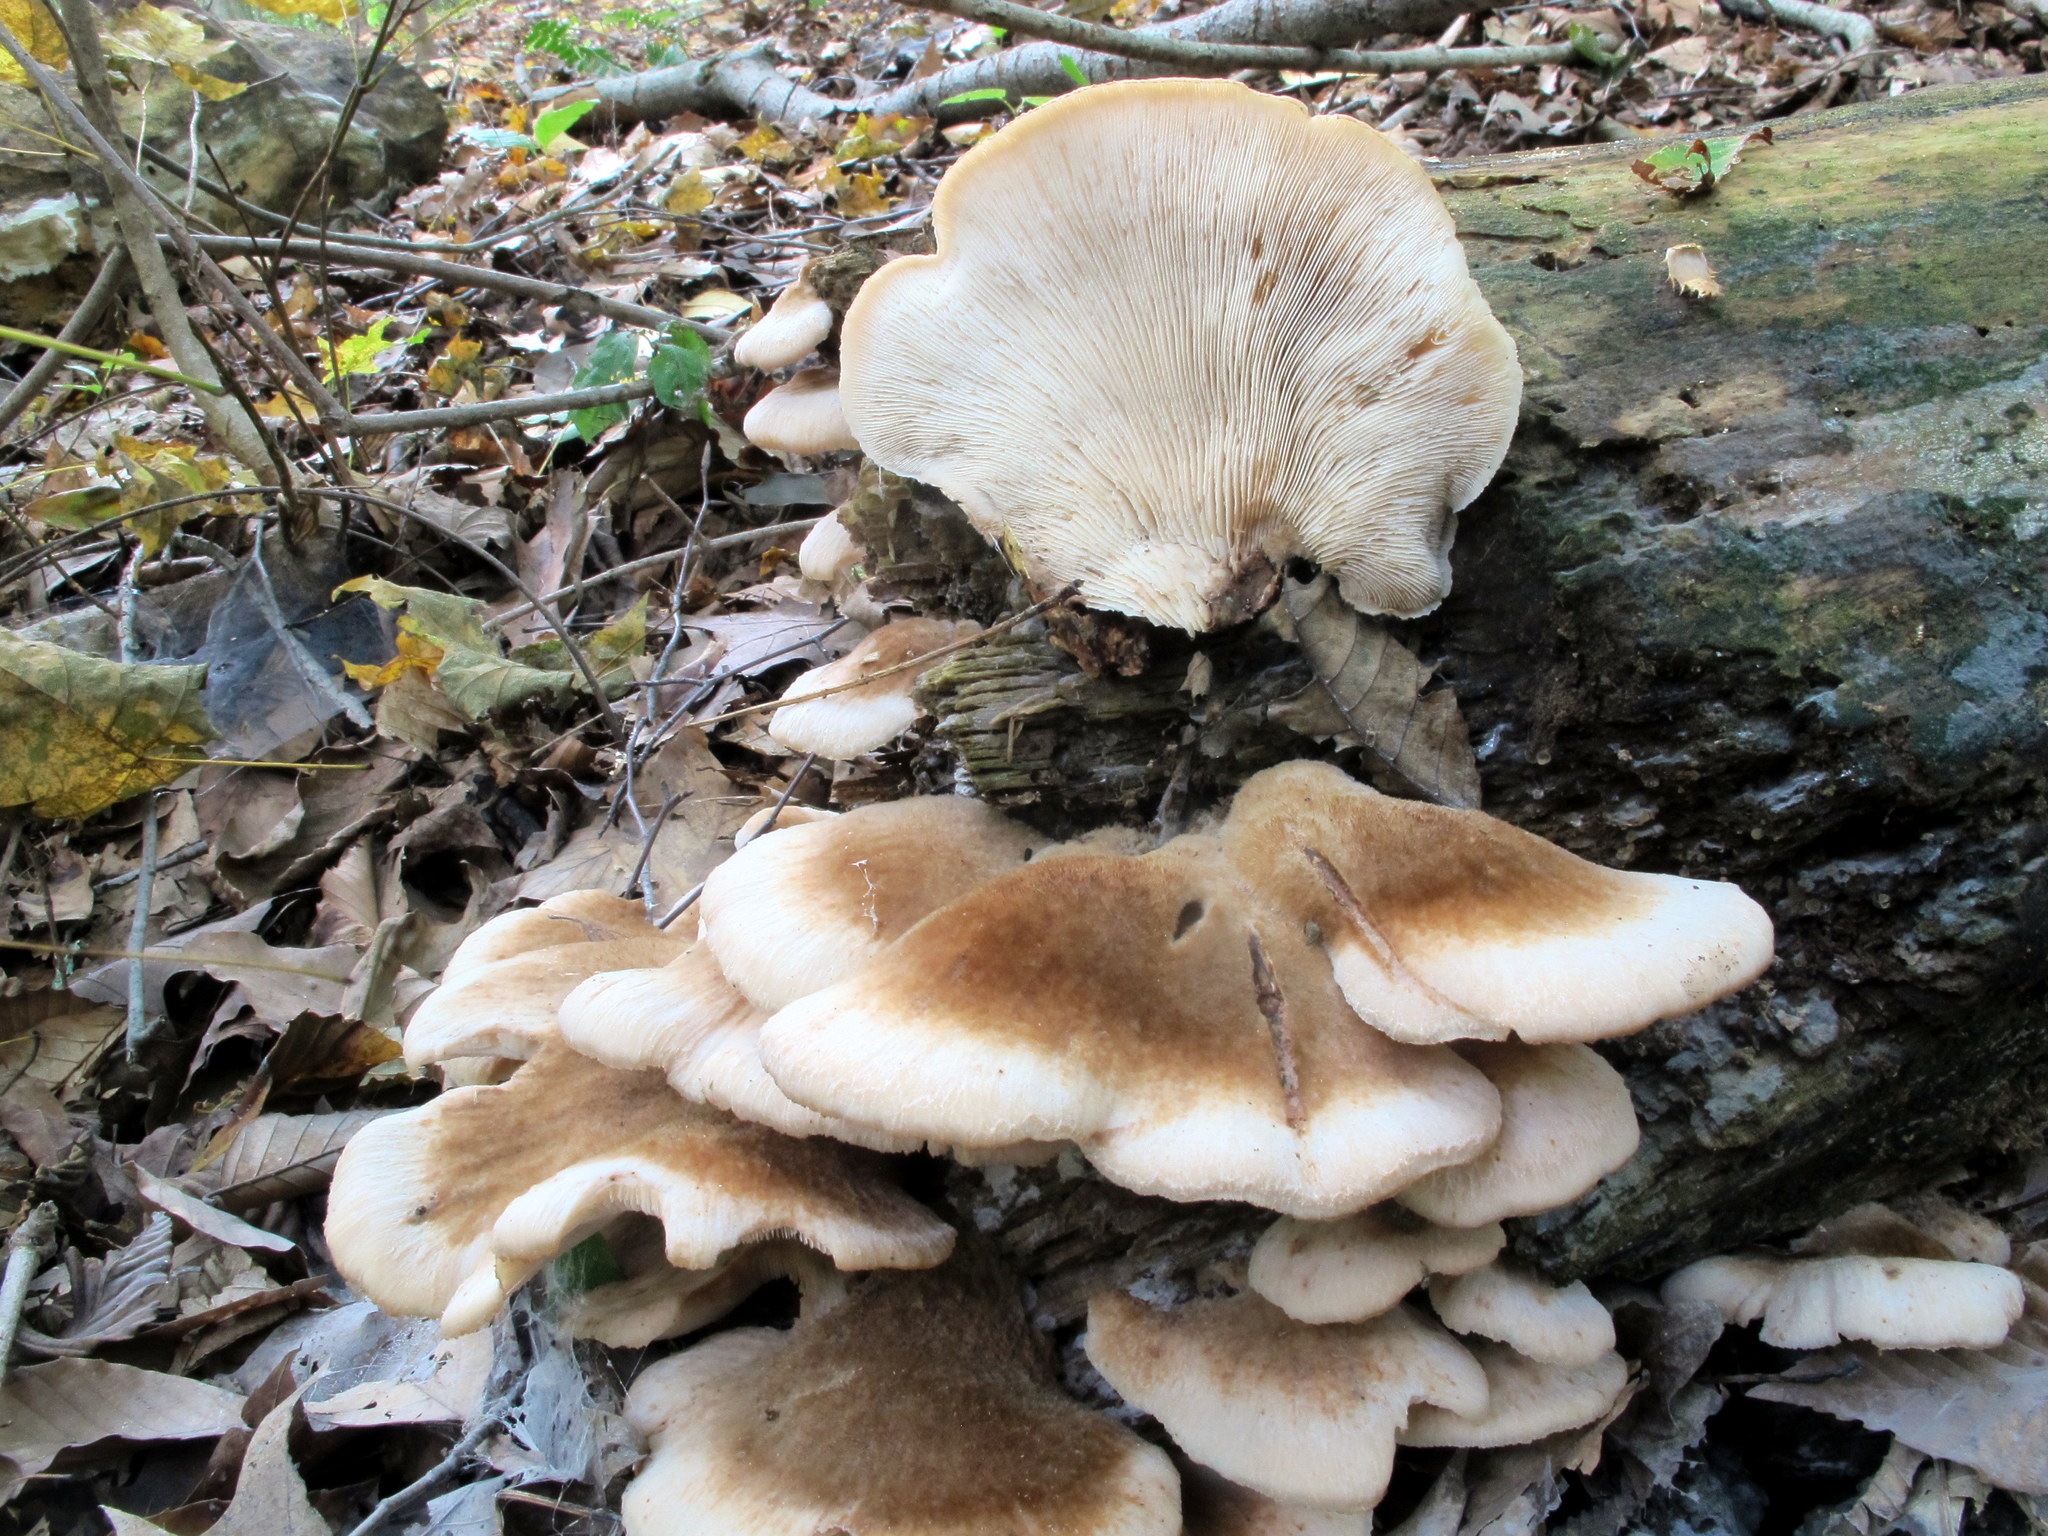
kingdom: Fungi
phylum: Basidiomycota
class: Agaricomycetes
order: Russulales
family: Auriscalpiaceae
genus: Lentinellus
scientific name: Lentinellus ursinus
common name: Bear lentinus
